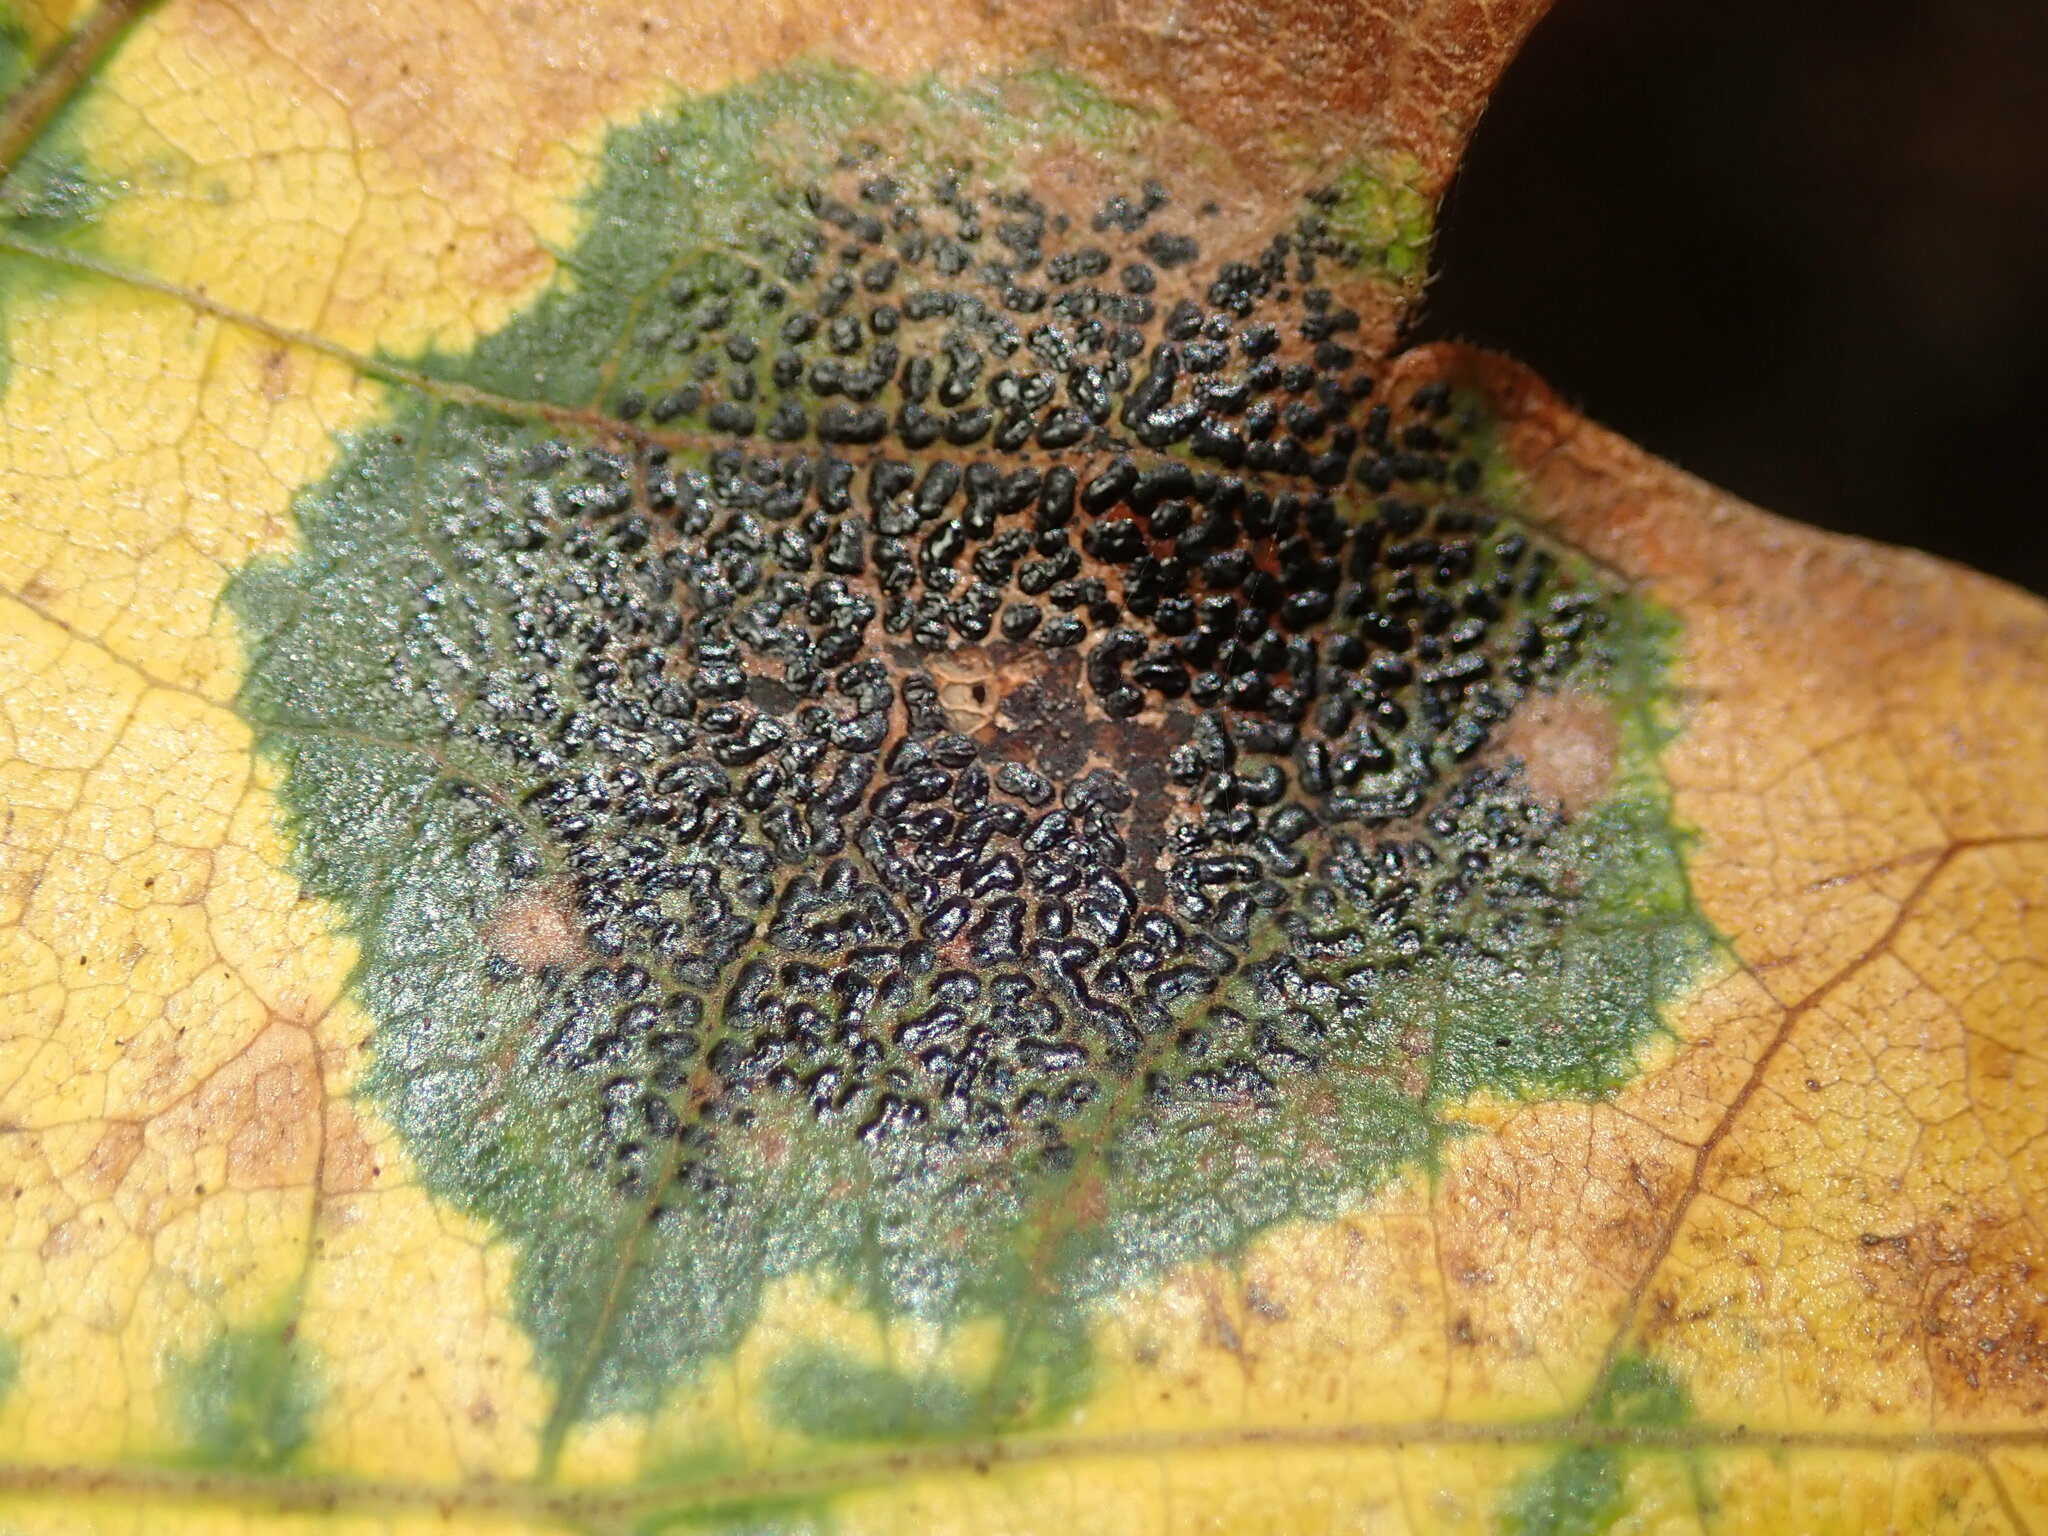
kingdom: Fungi
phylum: Ascomycota
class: Leotiomycetes
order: Rhytismatales
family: Rhytismataceae
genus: Rhytisma
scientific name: Rhytisma punctatum
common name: Speckled tar spot
